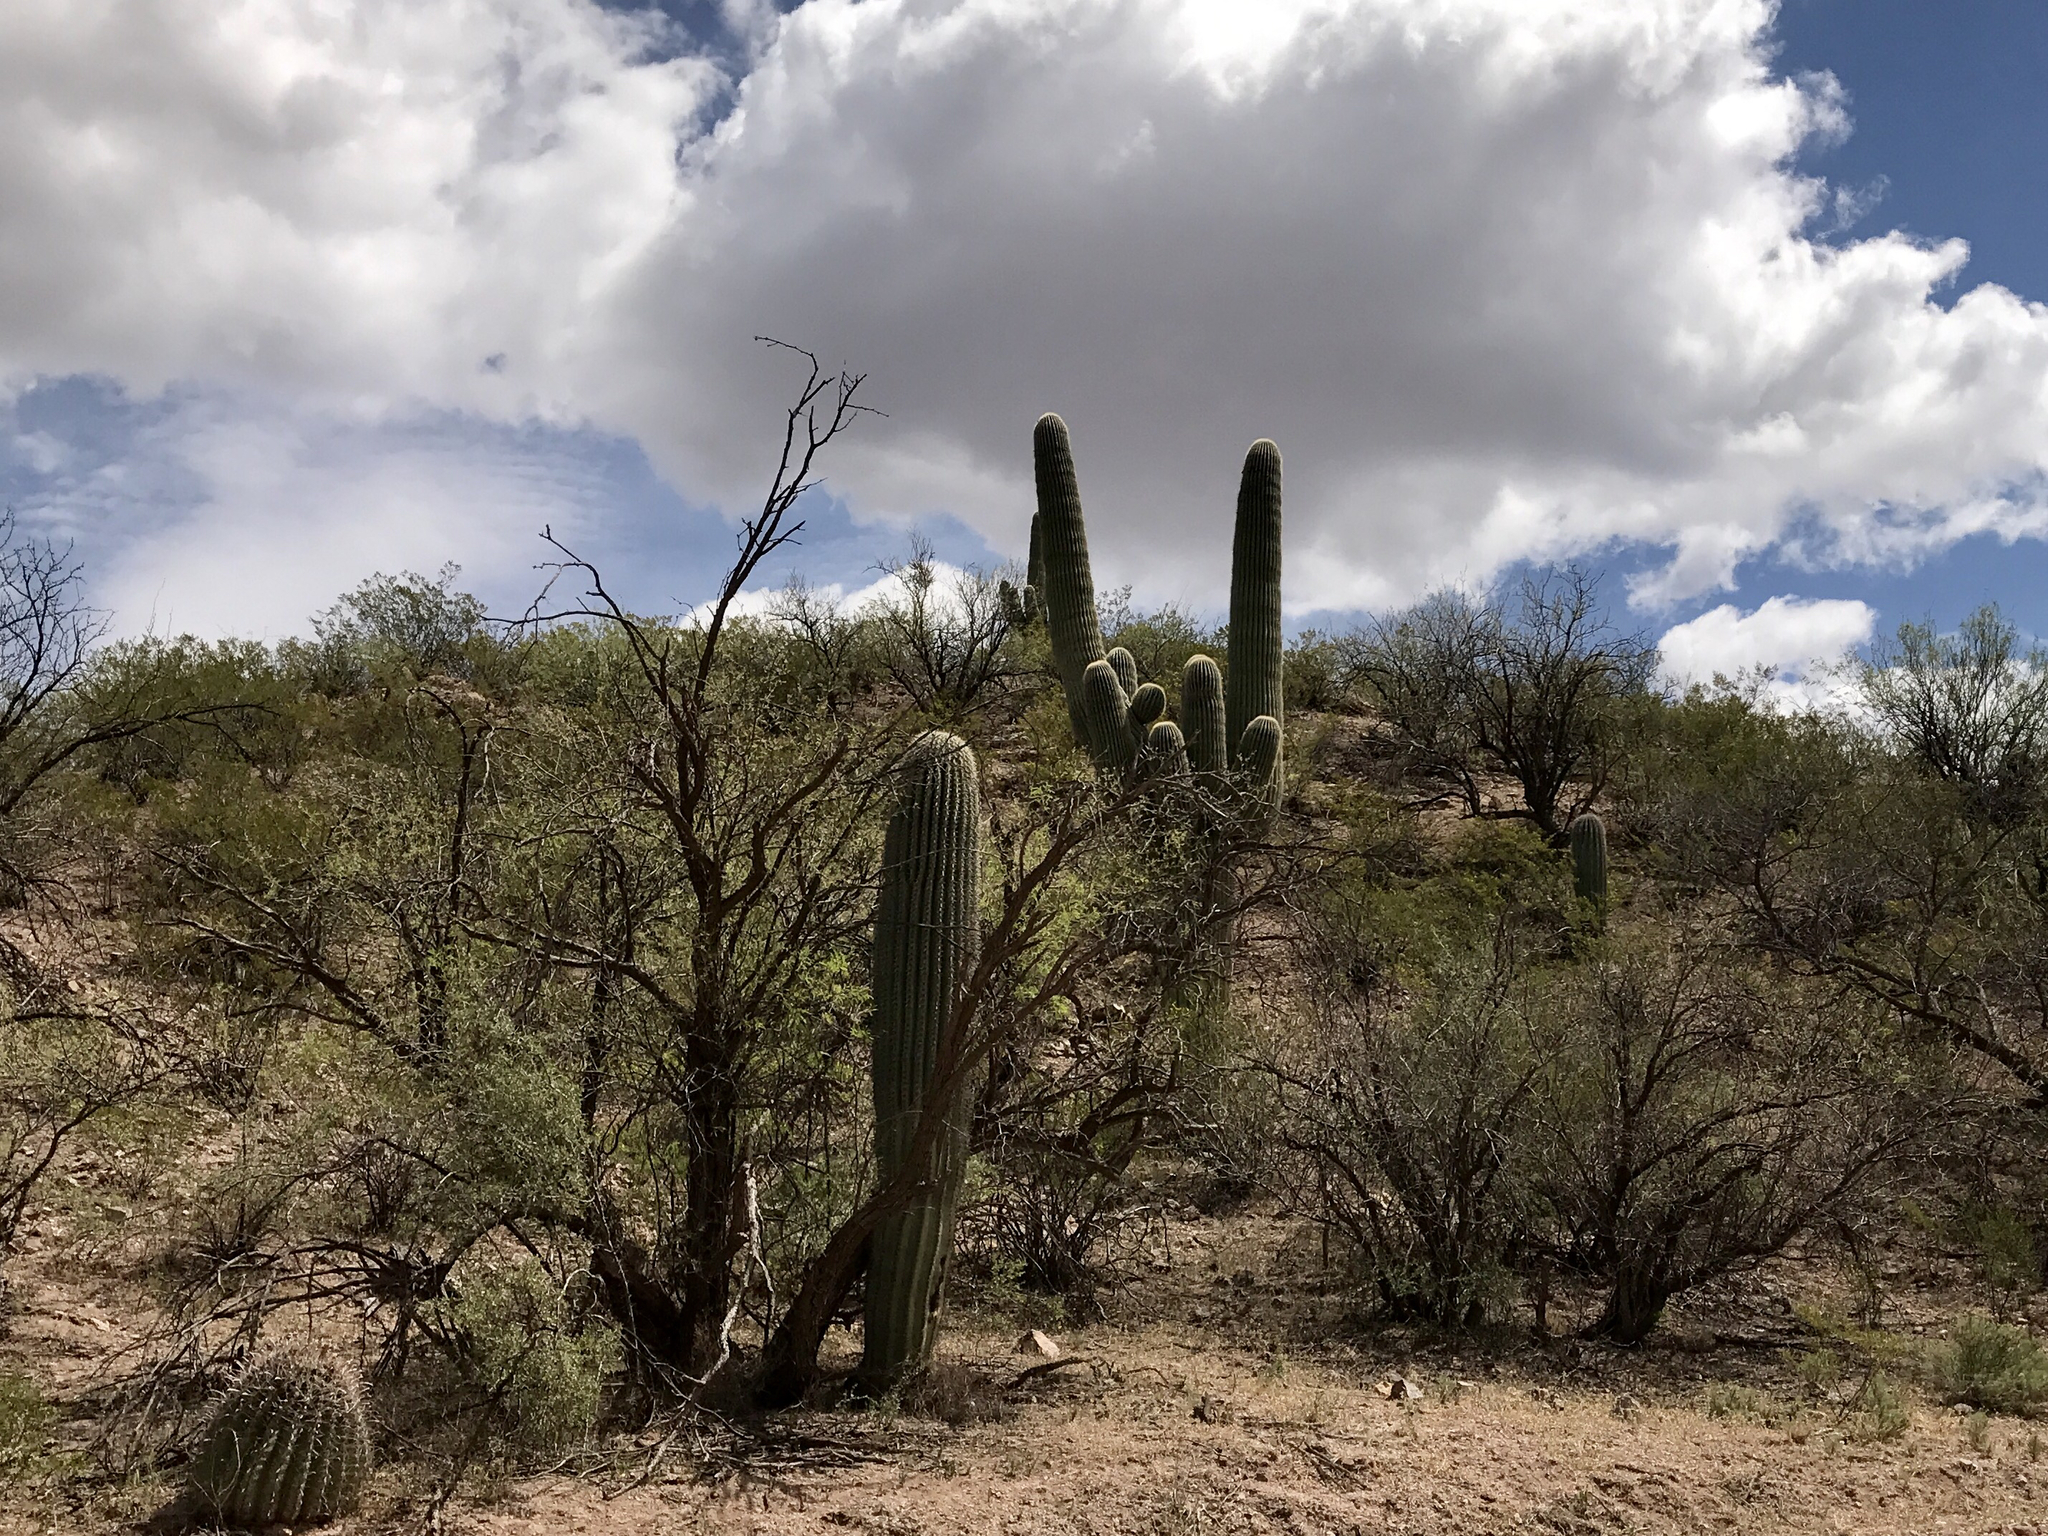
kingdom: Plantae
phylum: Tracheophyta
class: Magnoliopsida
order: Caryophyllales
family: Cactaceae
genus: Carnegiea
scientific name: Carnegiea gigantea
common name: Saguaro
